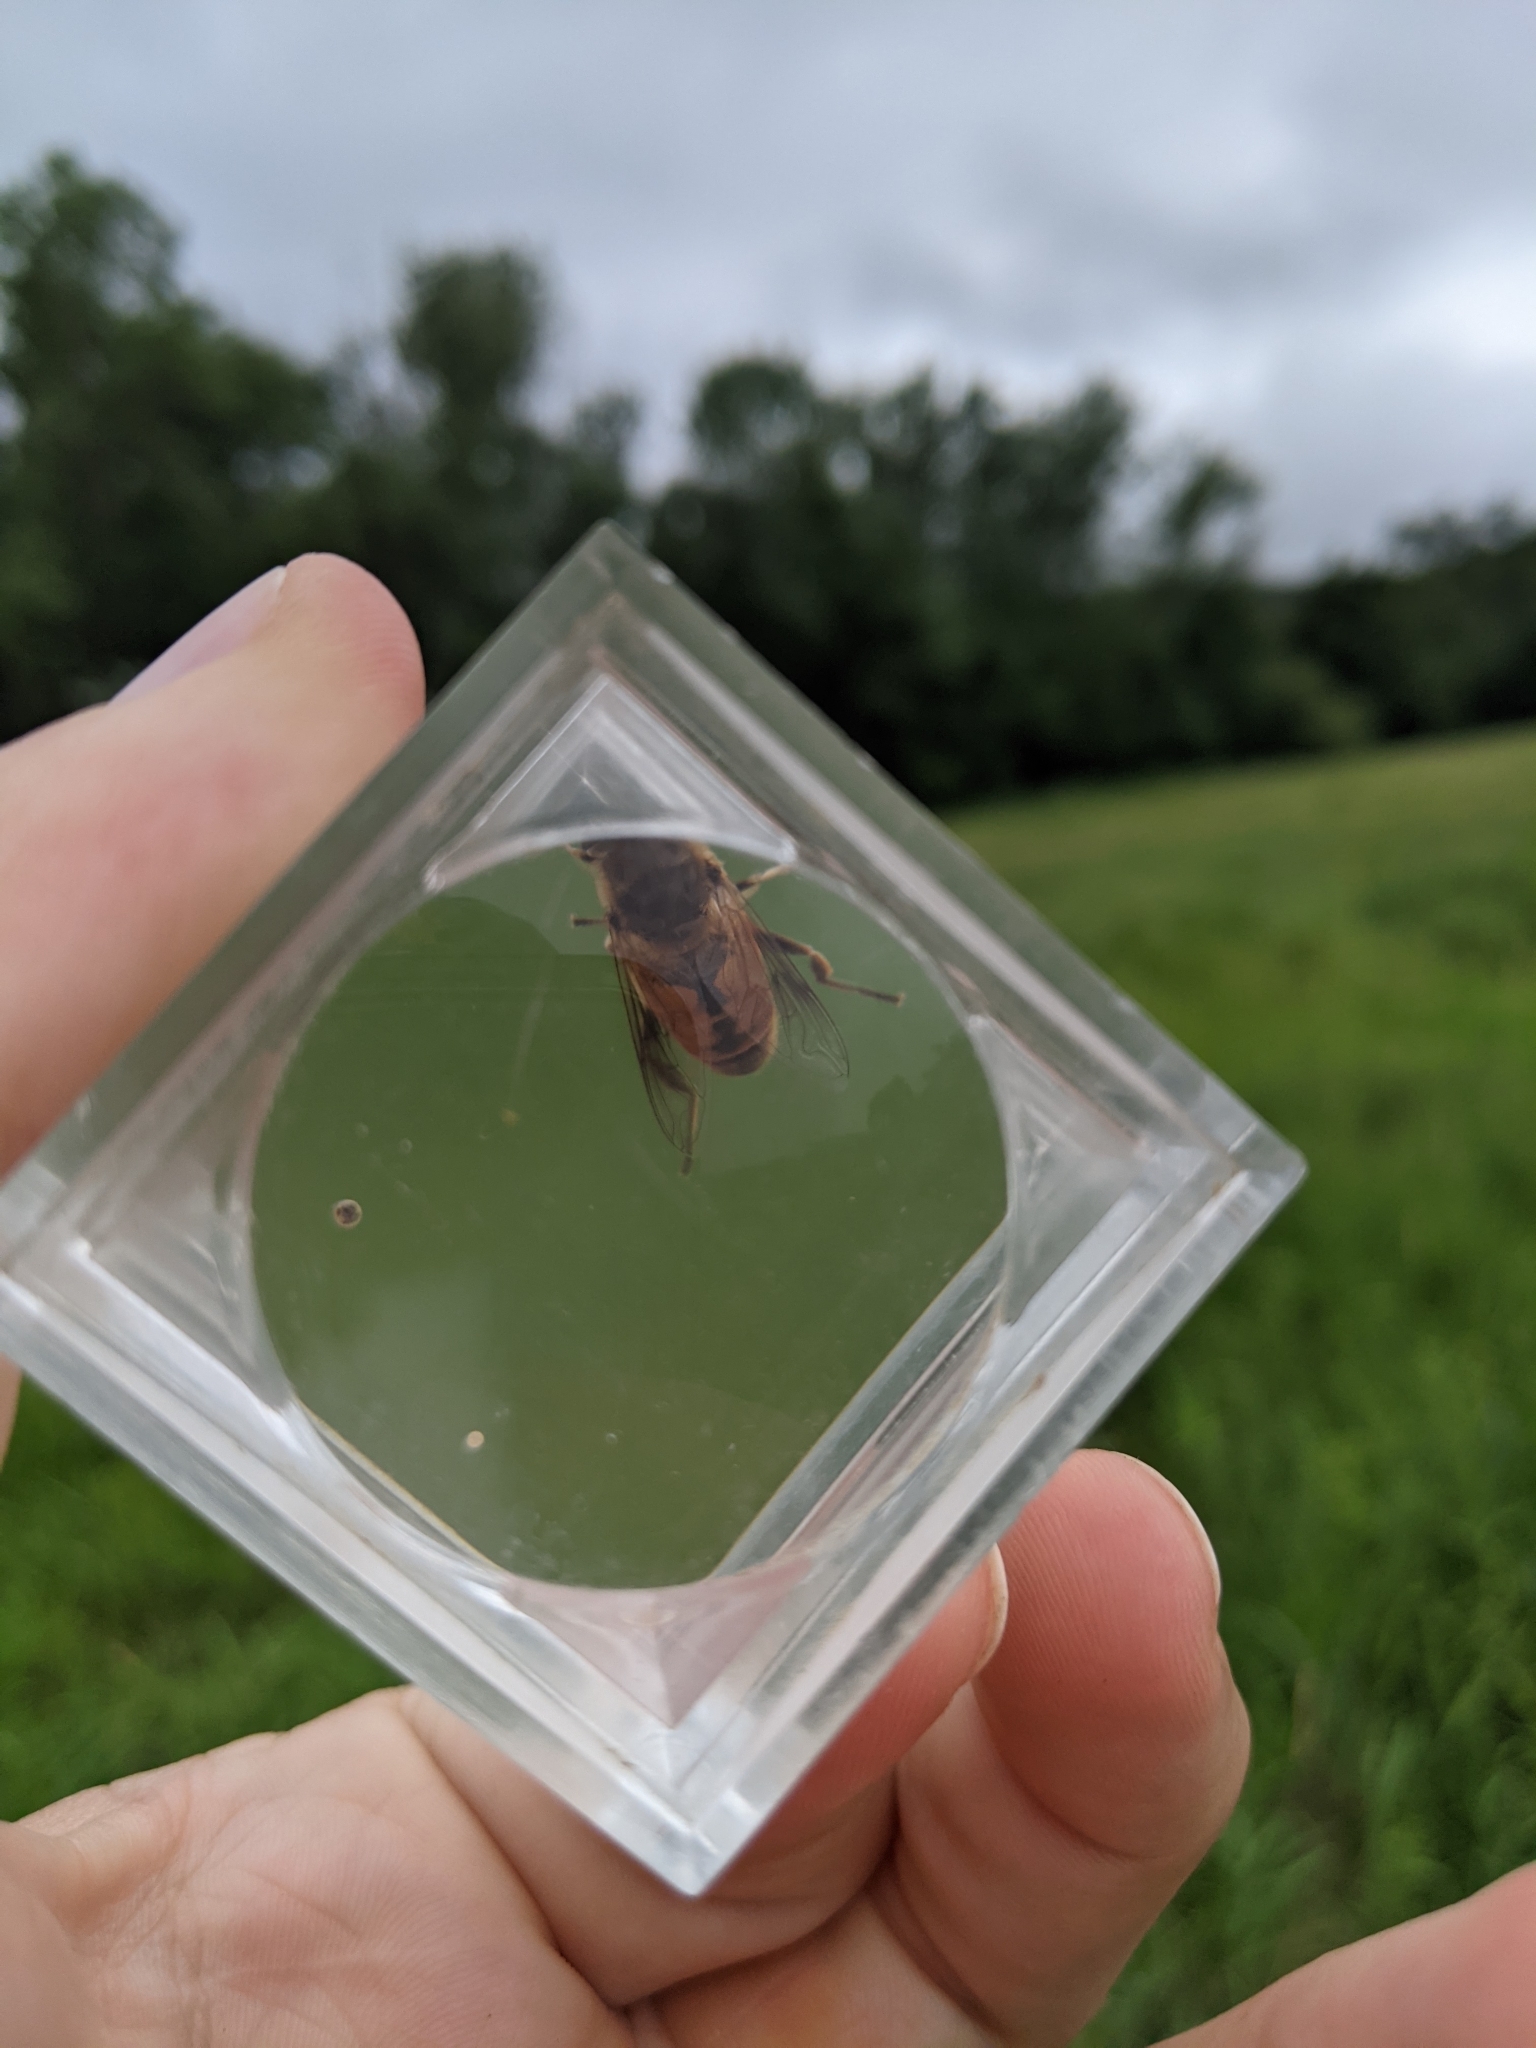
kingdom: Animalia
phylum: Arthropoda
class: Insecta
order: Diptera
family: Syrphidae
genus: Eristalis
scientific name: Eristalis tenax
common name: Drone fly
